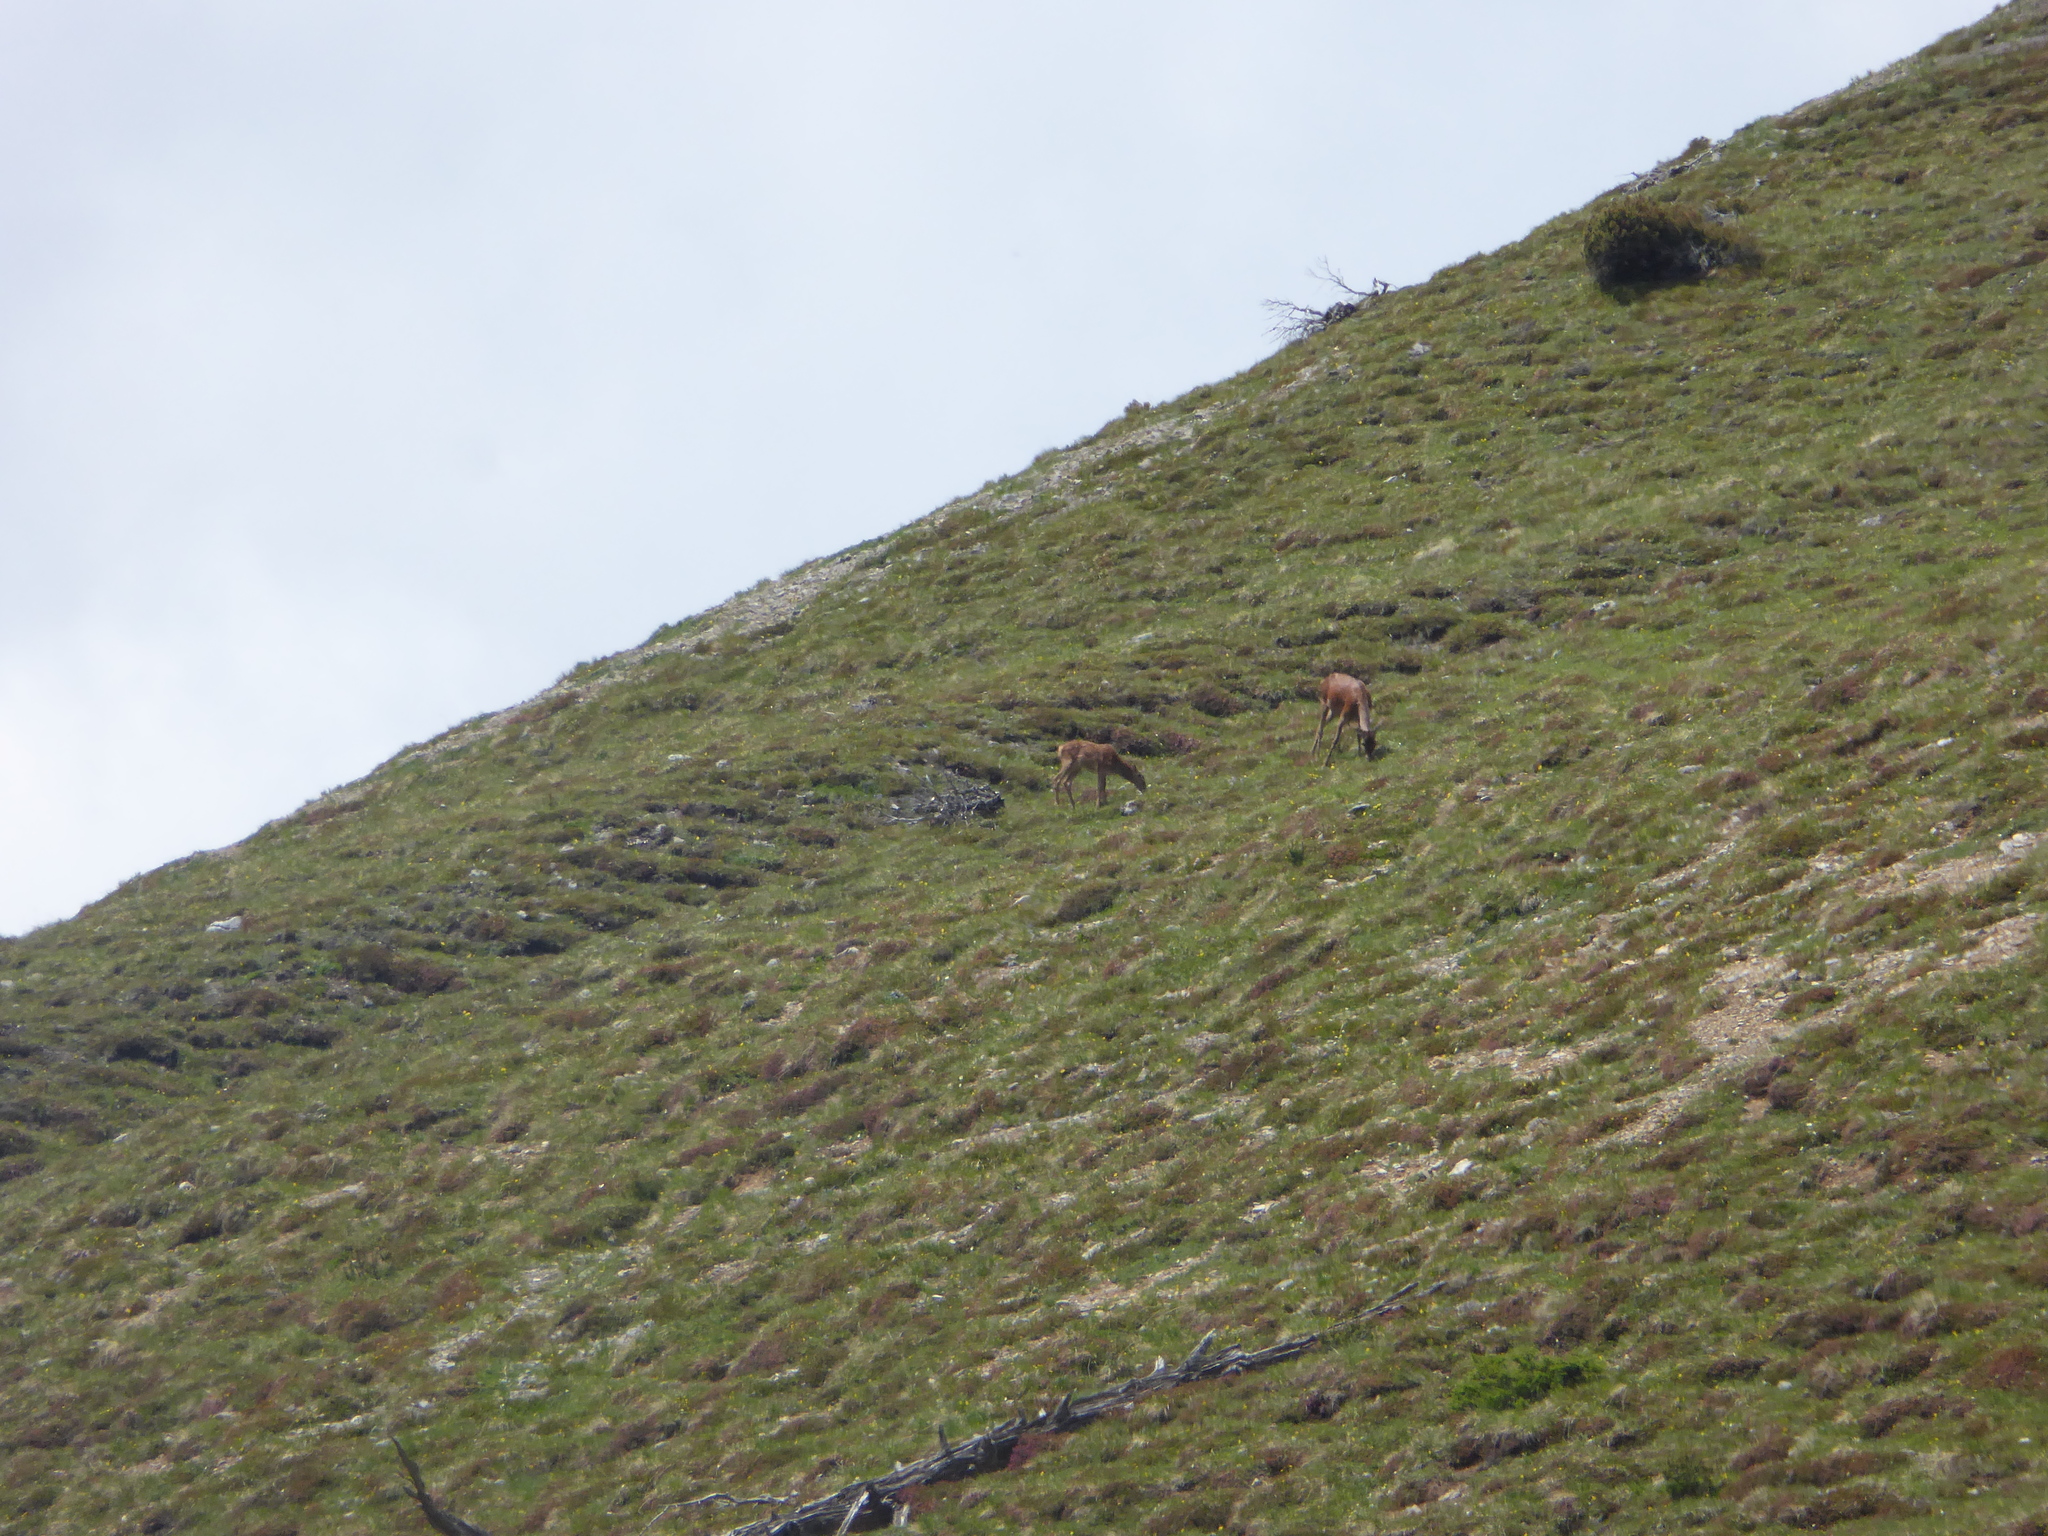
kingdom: Animalia
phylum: Chordata
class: Mammalia
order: Artiodactyla
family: Cervidae
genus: Cervus
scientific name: Cervus elaphus
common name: Red deer
